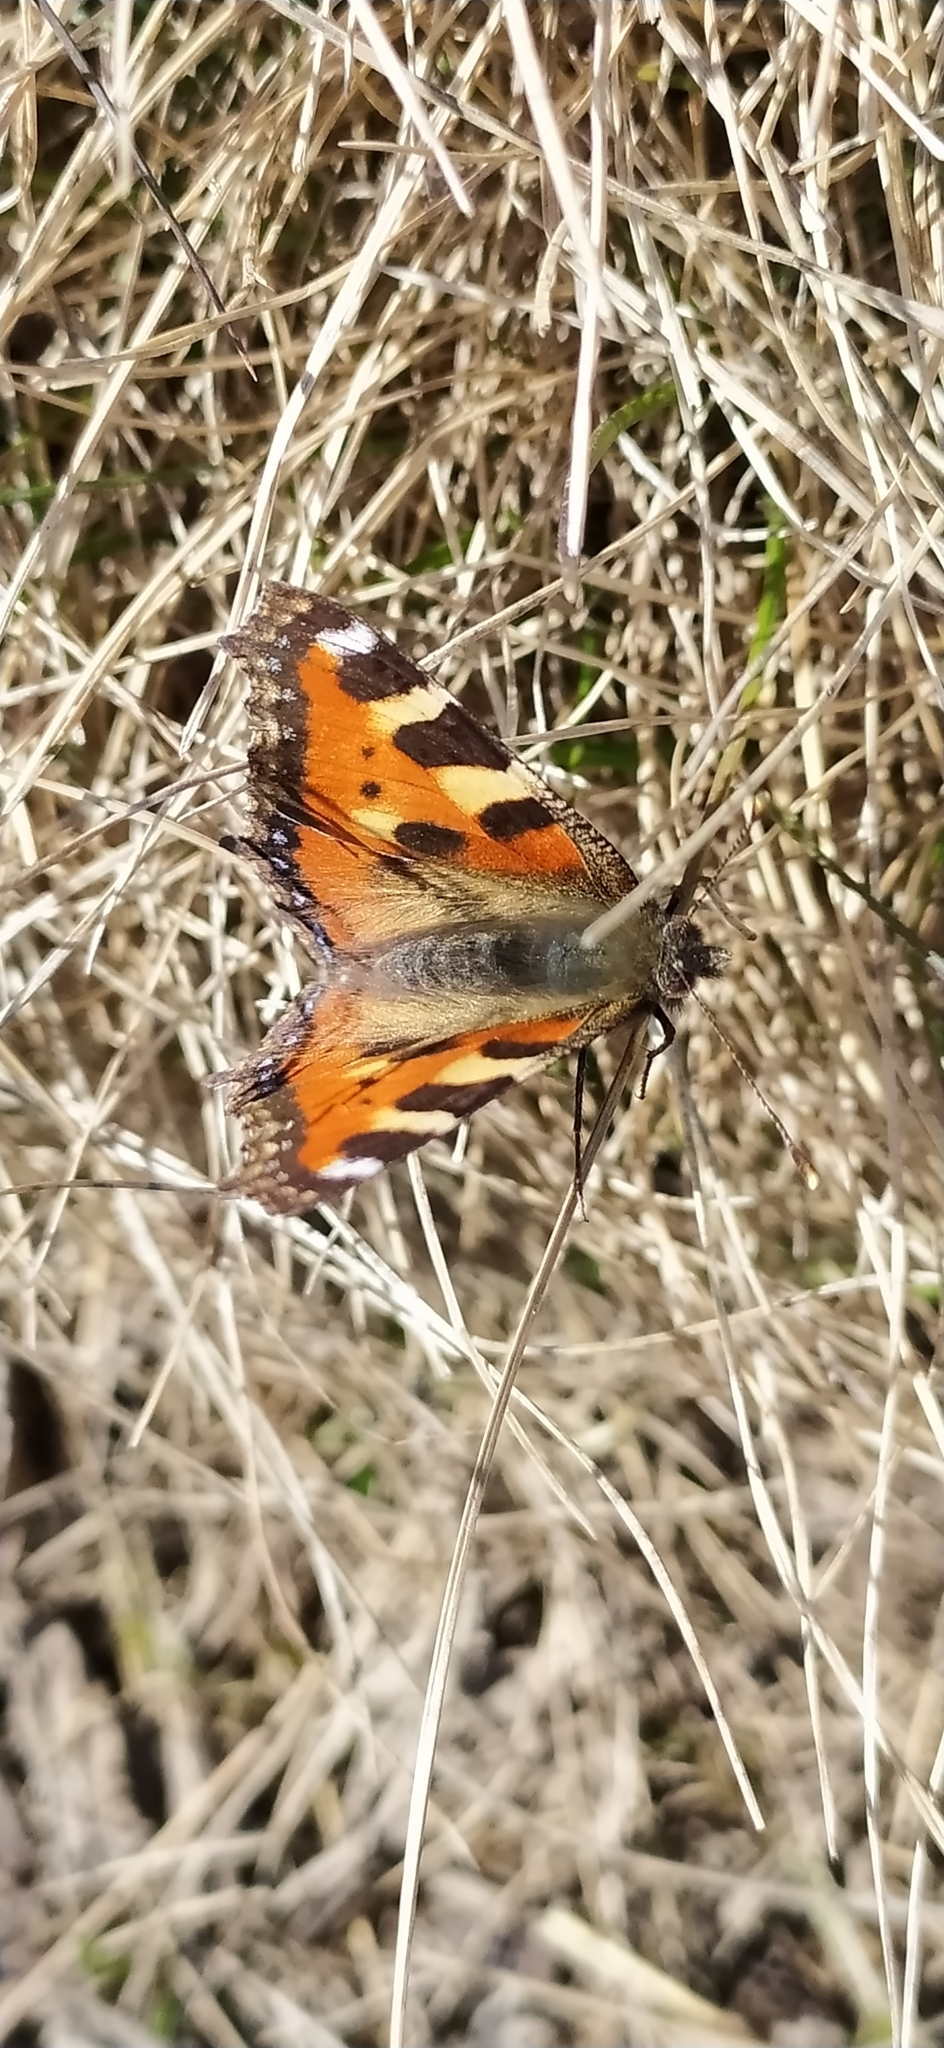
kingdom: Animalia
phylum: Arthropoda
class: Insecta
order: Lepidoptera
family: Nymphalidae
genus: Aglais
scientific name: Aglais urticae
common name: Small tortoiseshell
